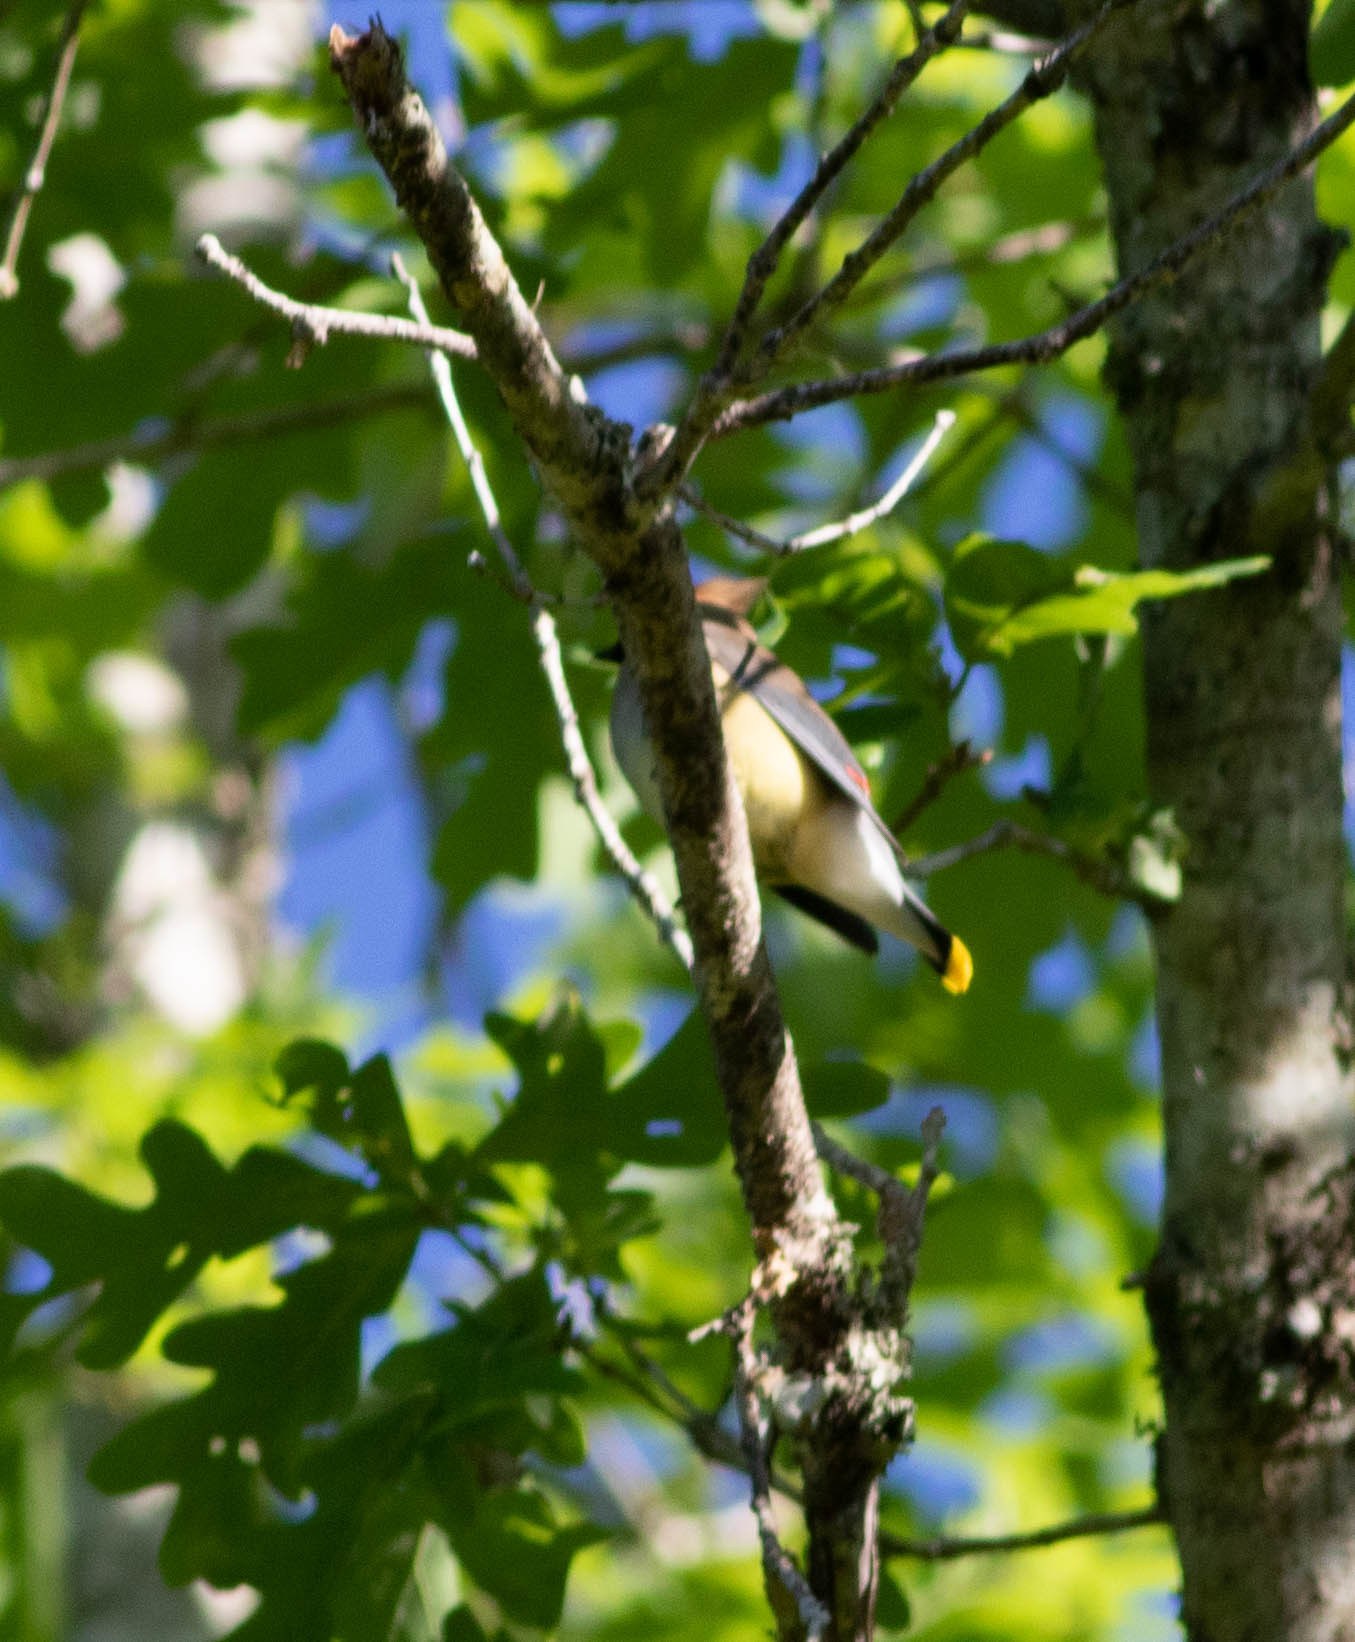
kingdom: Animalia
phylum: Chordata
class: Aves
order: Passeriformes
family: Bombycillidae
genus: Bombycilla
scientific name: Bombycilla cedrorum
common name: Cedar waxwing
